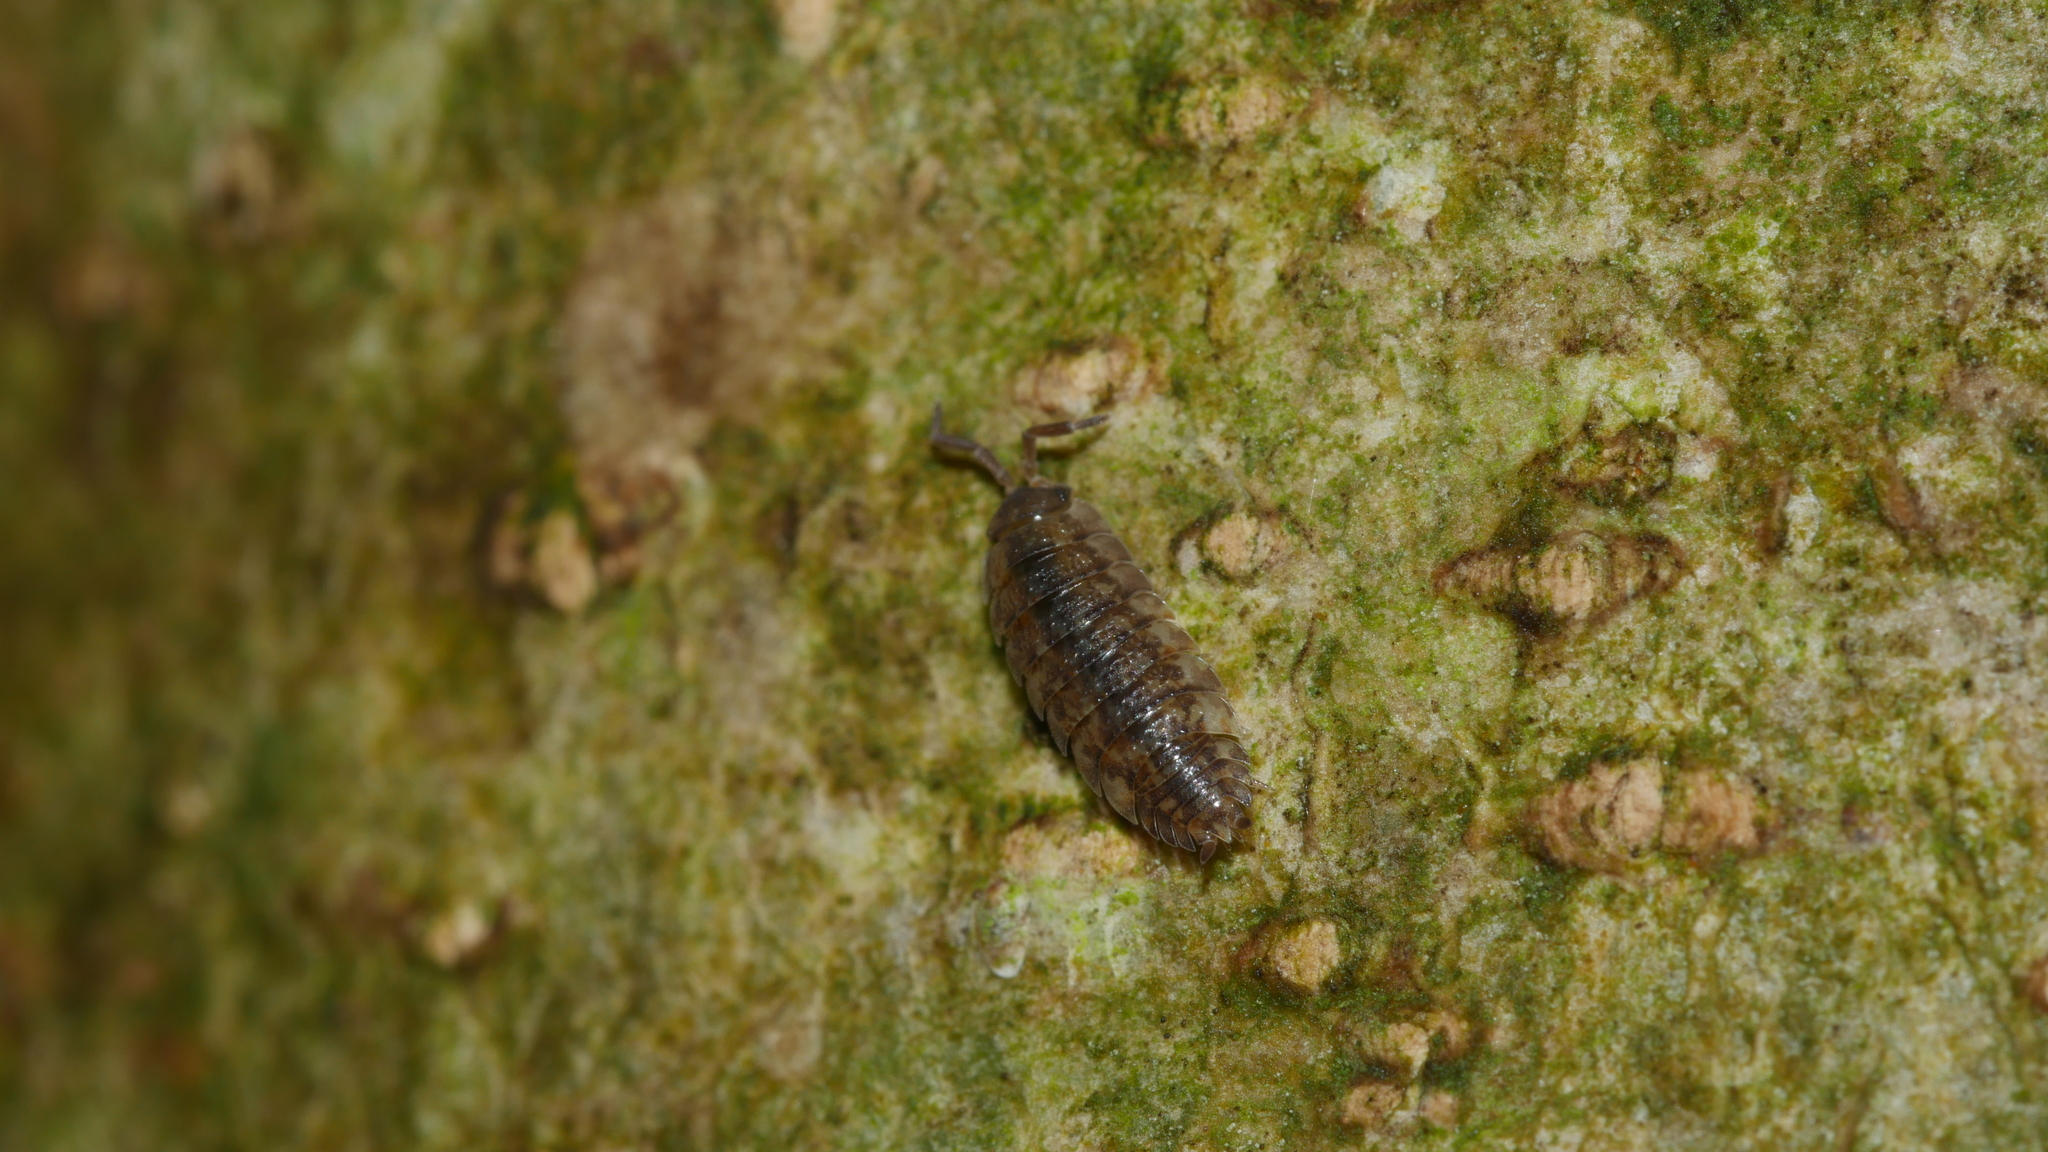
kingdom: Animalia
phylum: Arthropoda
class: Malacostraca
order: Isopoda
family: Porcellionidae
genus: Porcellio
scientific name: Porcellio scaber
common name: Common rough woodlouse
